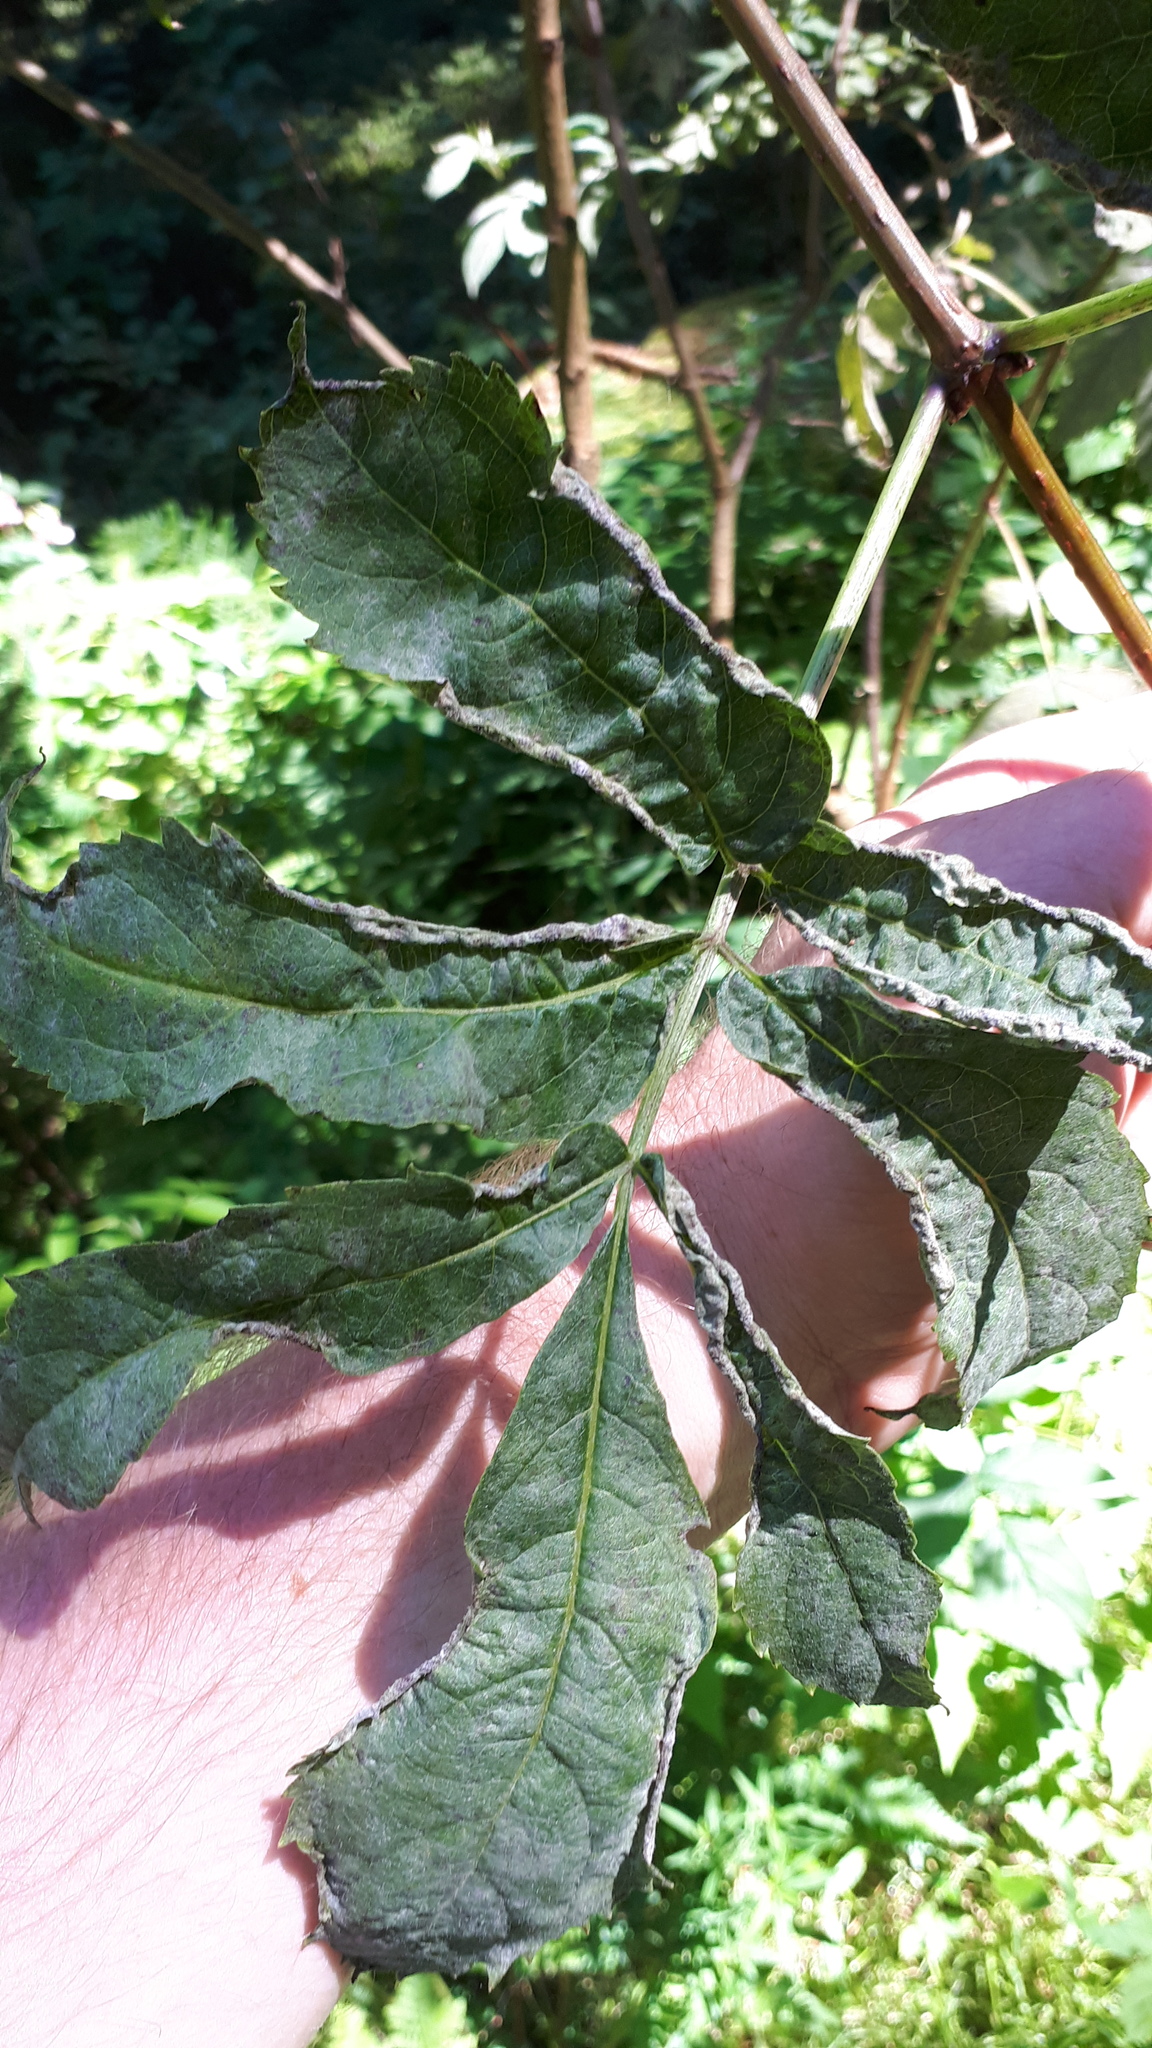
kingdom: Animalia
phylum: Arthropoda
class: Arachnida
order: Trombidiformes
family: Eriophyidae
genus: Epitrimerus
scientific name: Epitrimerus trilobus
